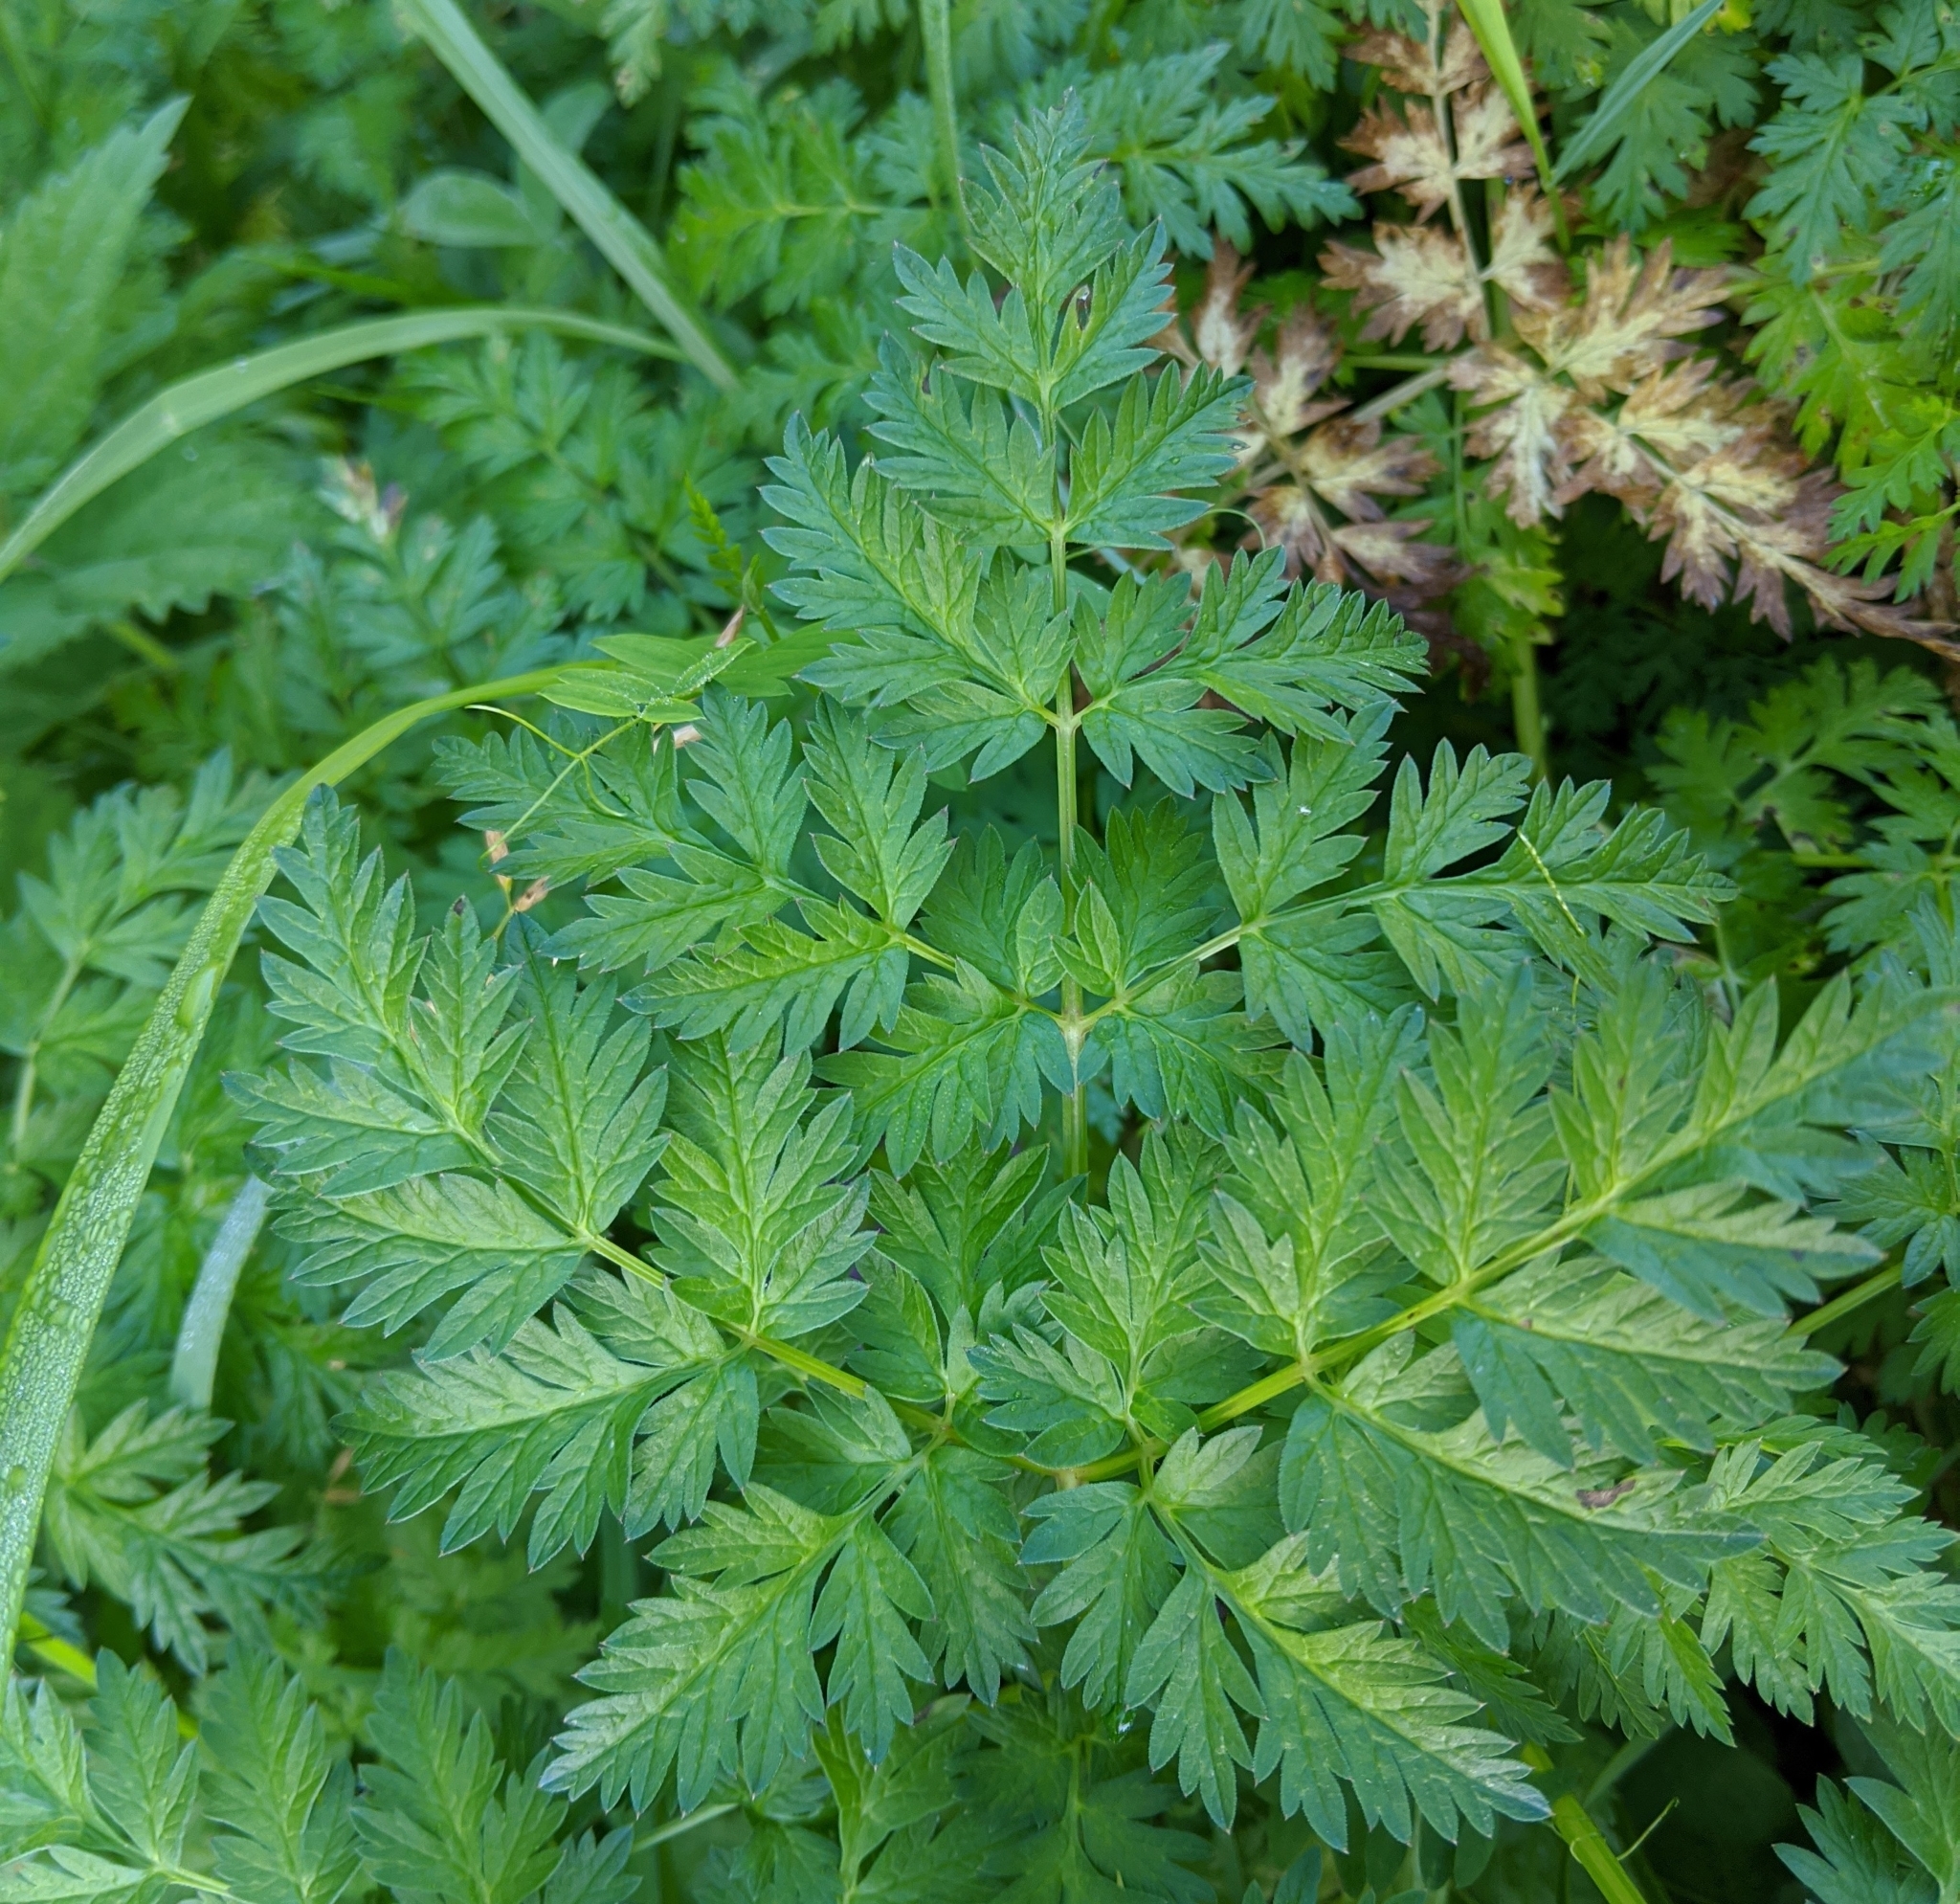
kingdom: Plantae
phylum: Tracheophyta
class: Magnoliopsida
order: Apiales
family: Apiaceae
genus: Anthriscus
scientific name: Anthriscus sylvestris
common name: Cow parsley
